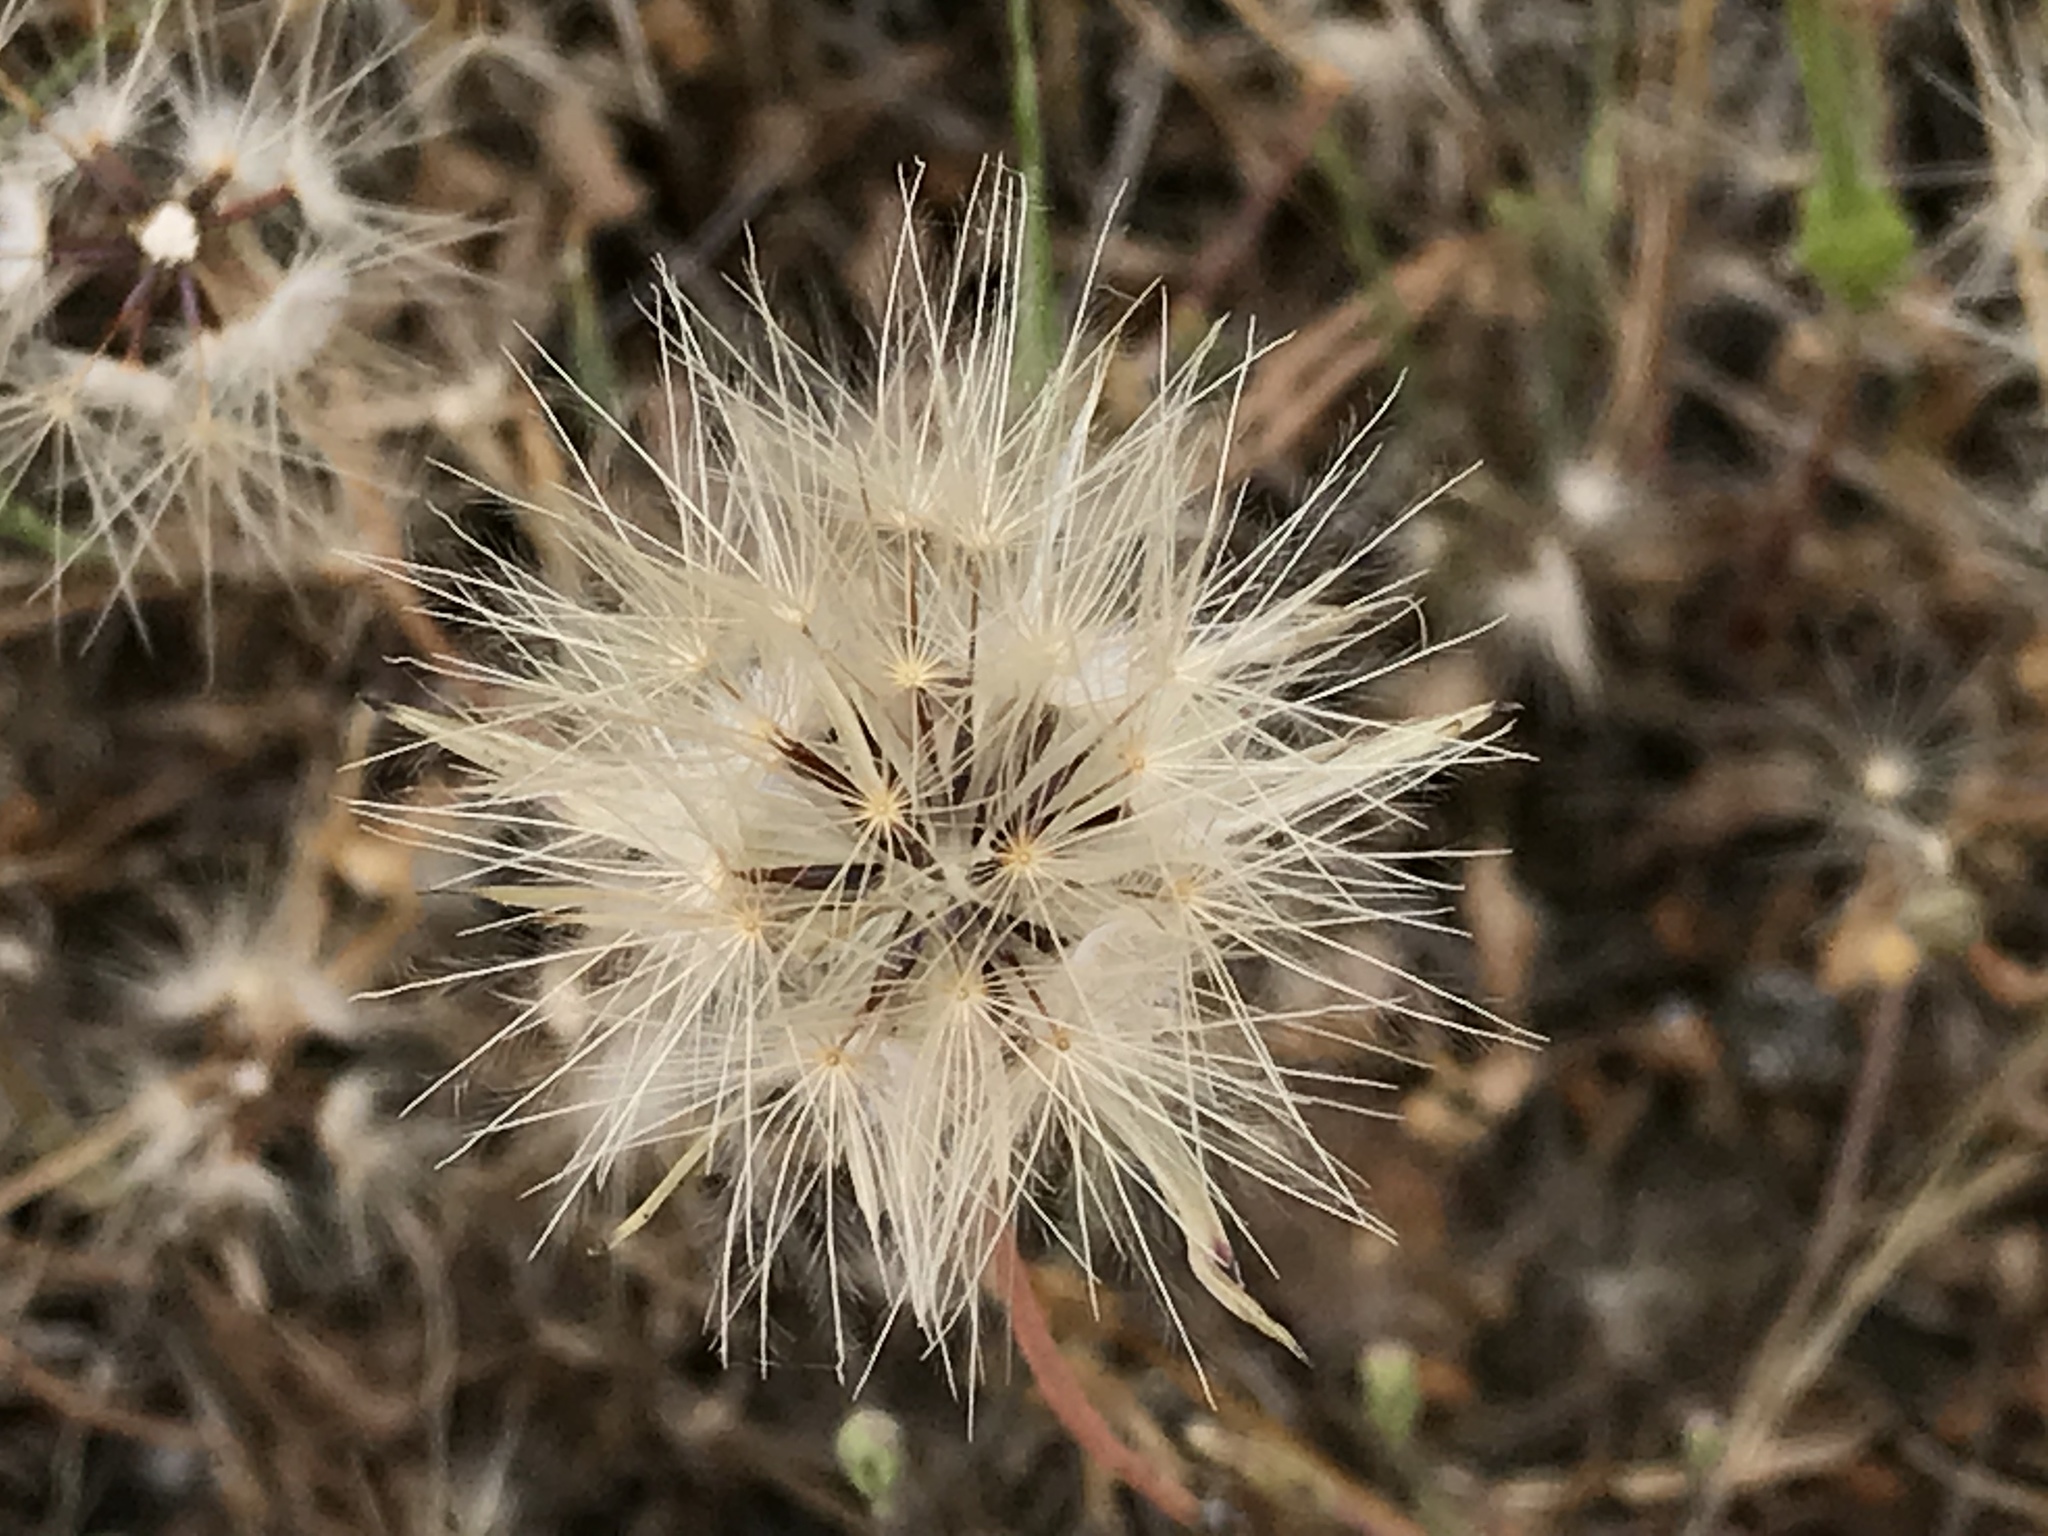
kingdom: Plantae
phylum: Tracheophyta
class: Magnoliopsida
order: Asterales
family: Asteraceae
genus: Hypochaeris
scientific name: Hypochaeris glabra
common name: Smooth catsear
